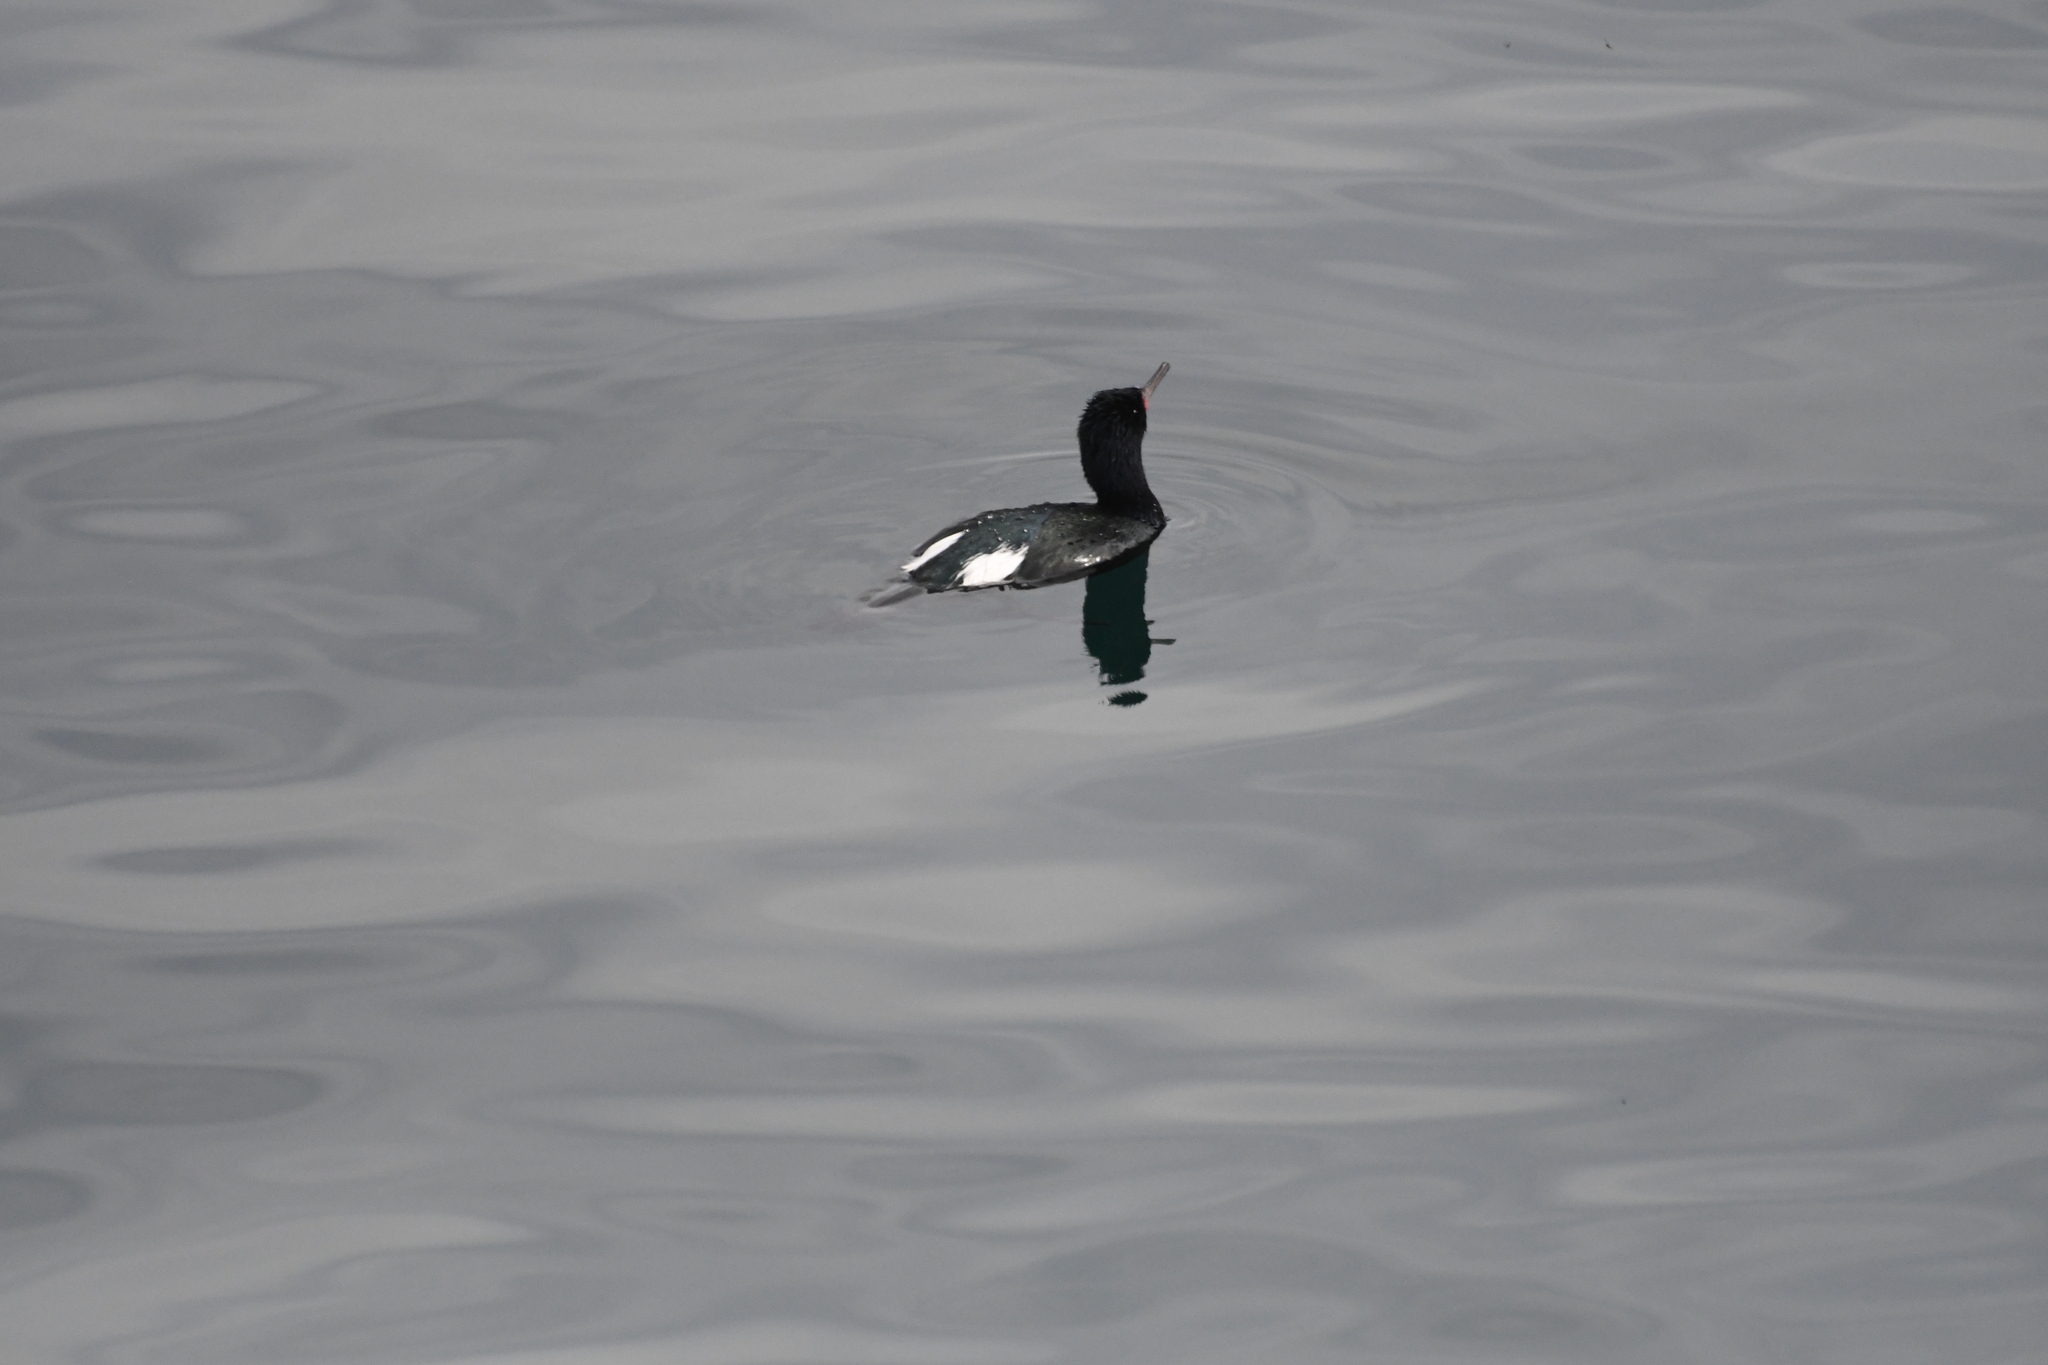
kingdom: Animalia
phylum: Chordata
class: Aves
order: Suliformes
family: Phalacrocoracidae
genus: Phalacrocorax
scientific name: Phalacrocorax pelagicus
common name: Pelagic cormorant
